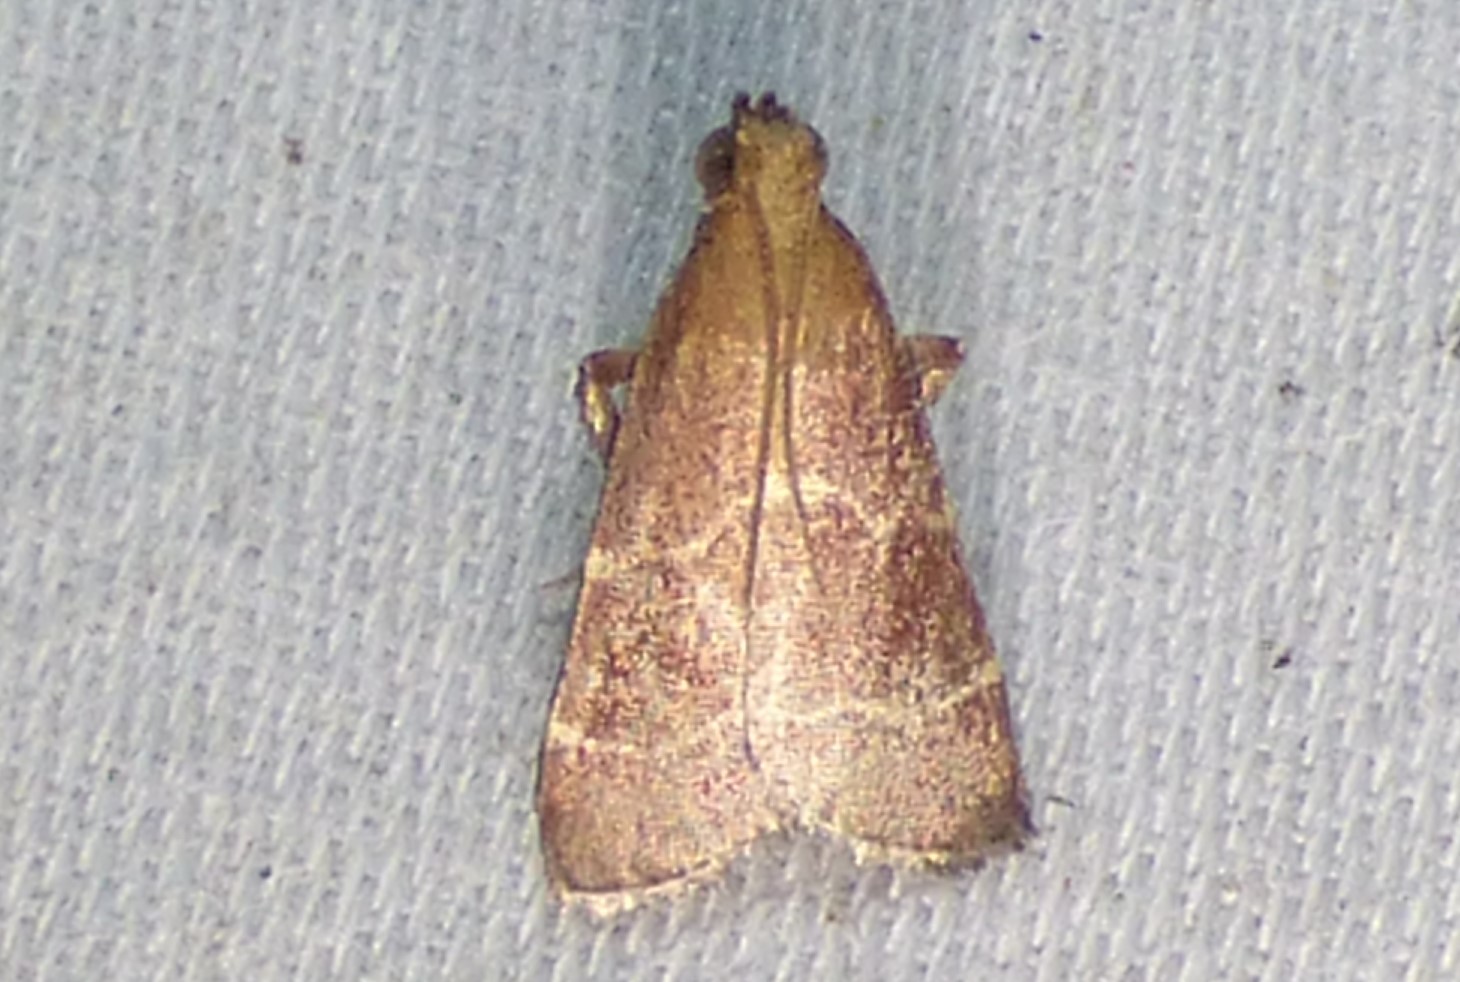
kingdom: Animalia
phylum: Arthropoda
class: Insecta
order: Lepidoptera
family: Pyralidae
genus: Arta
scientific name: Arta statalis
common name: Posturing arta moth
